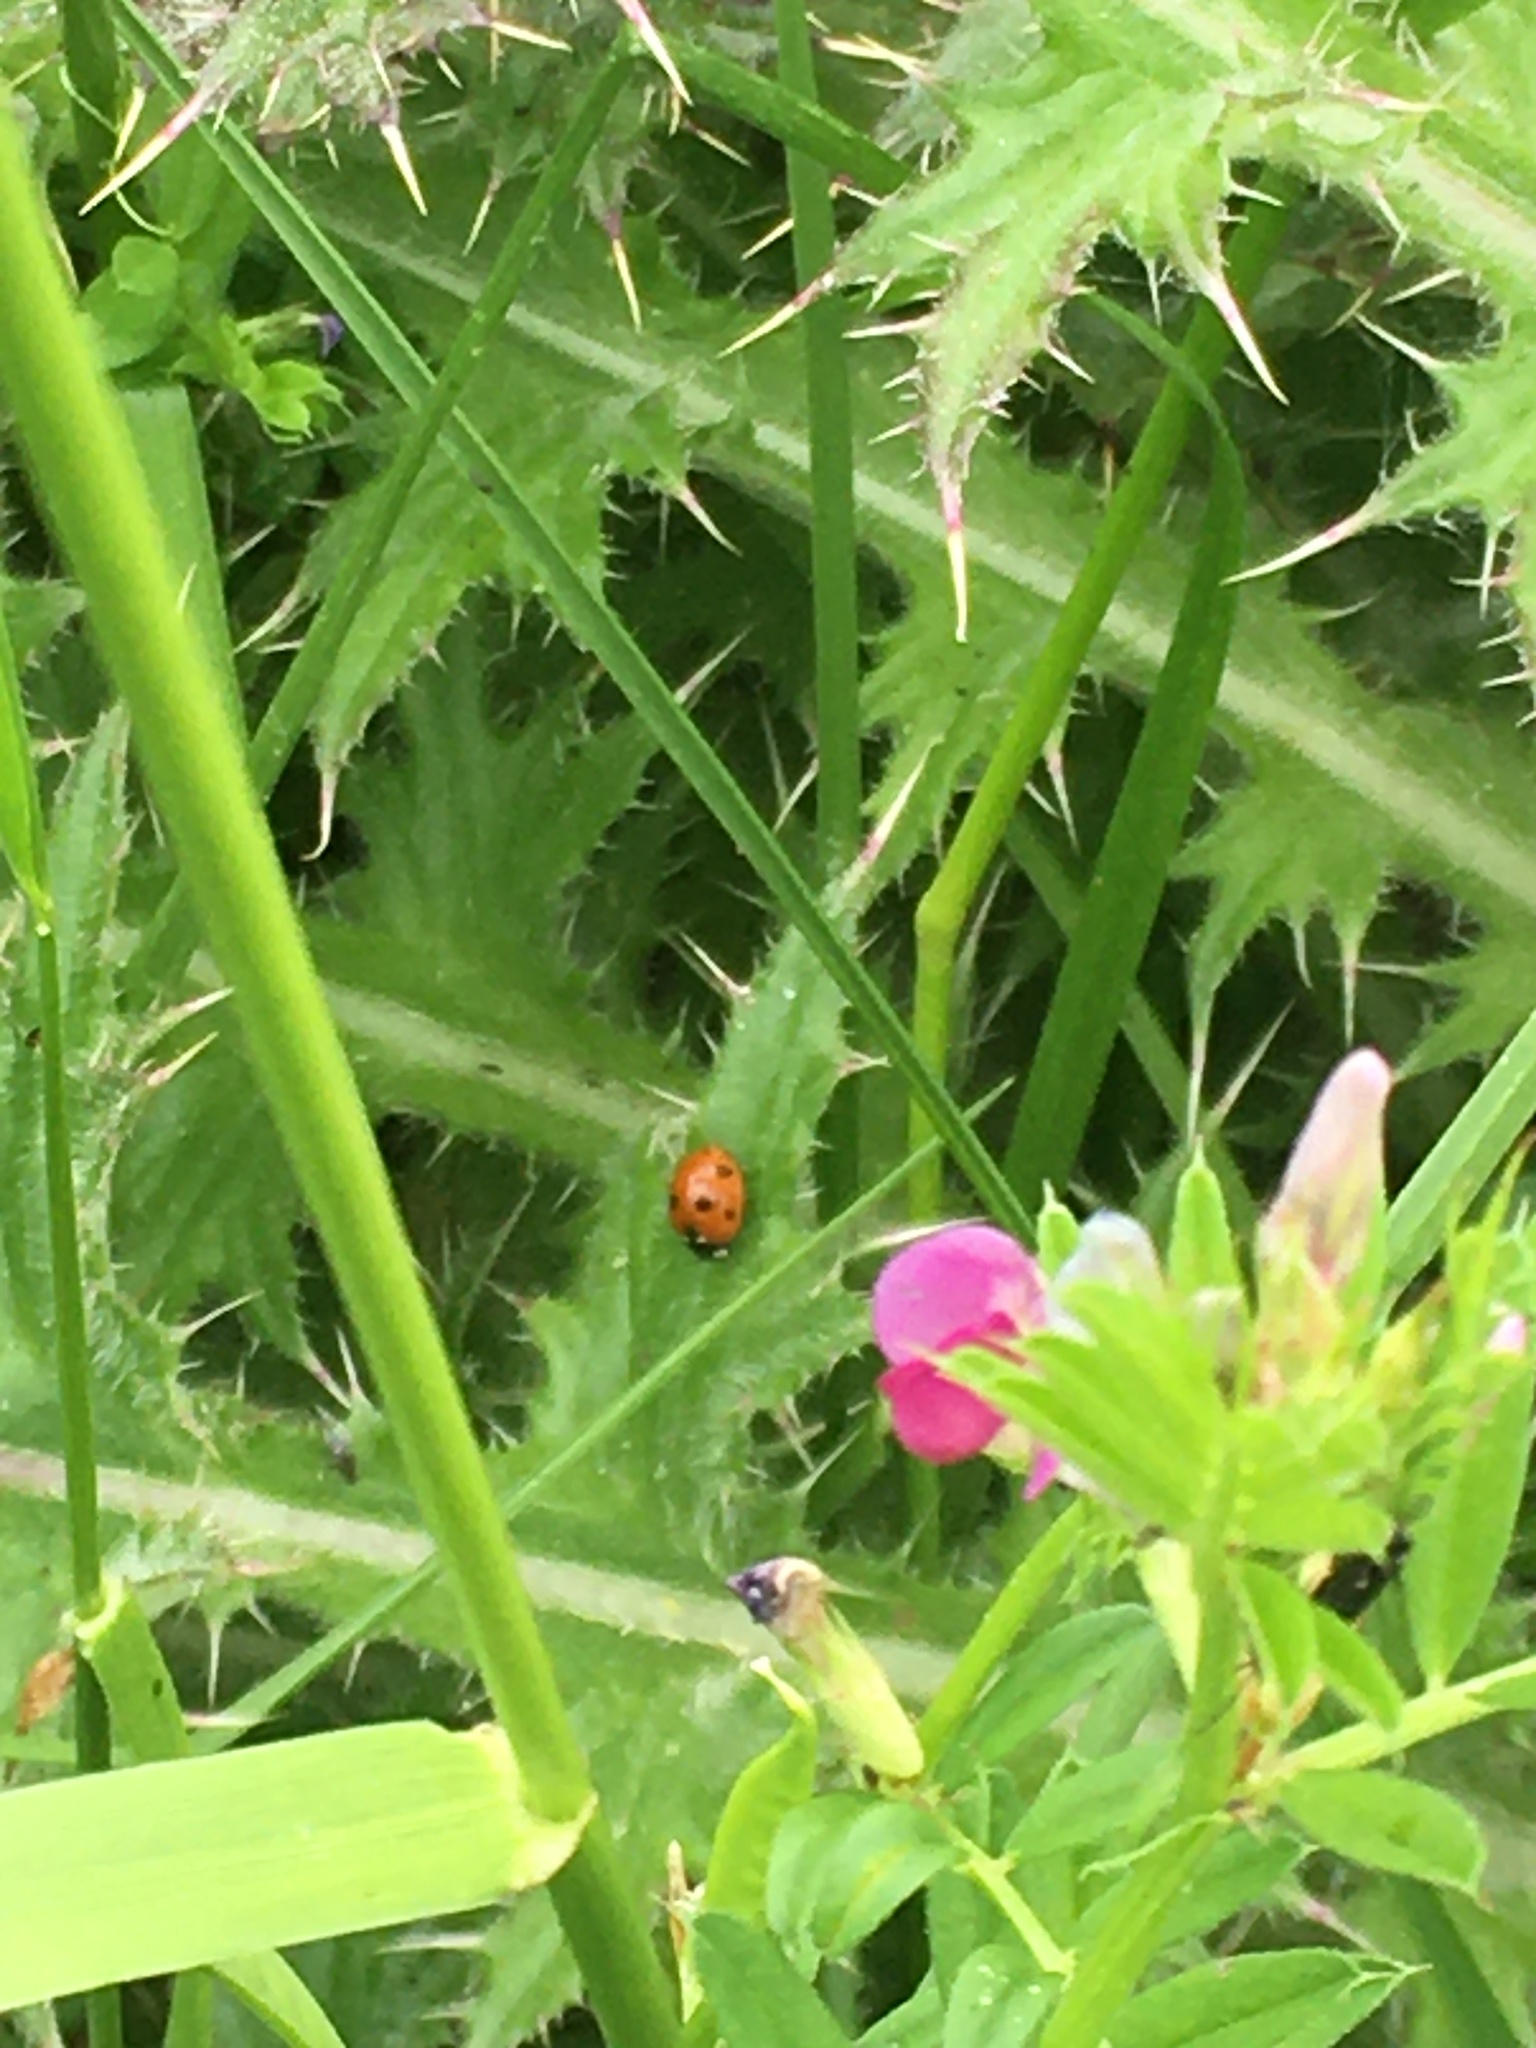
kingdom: Animalia
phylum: Arthropoda
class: Insecta
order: Coleoptera
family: Coccinellidae
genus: Coccinella
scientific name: Coccinella septempunctata
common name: Sevenspotted lady beetle
